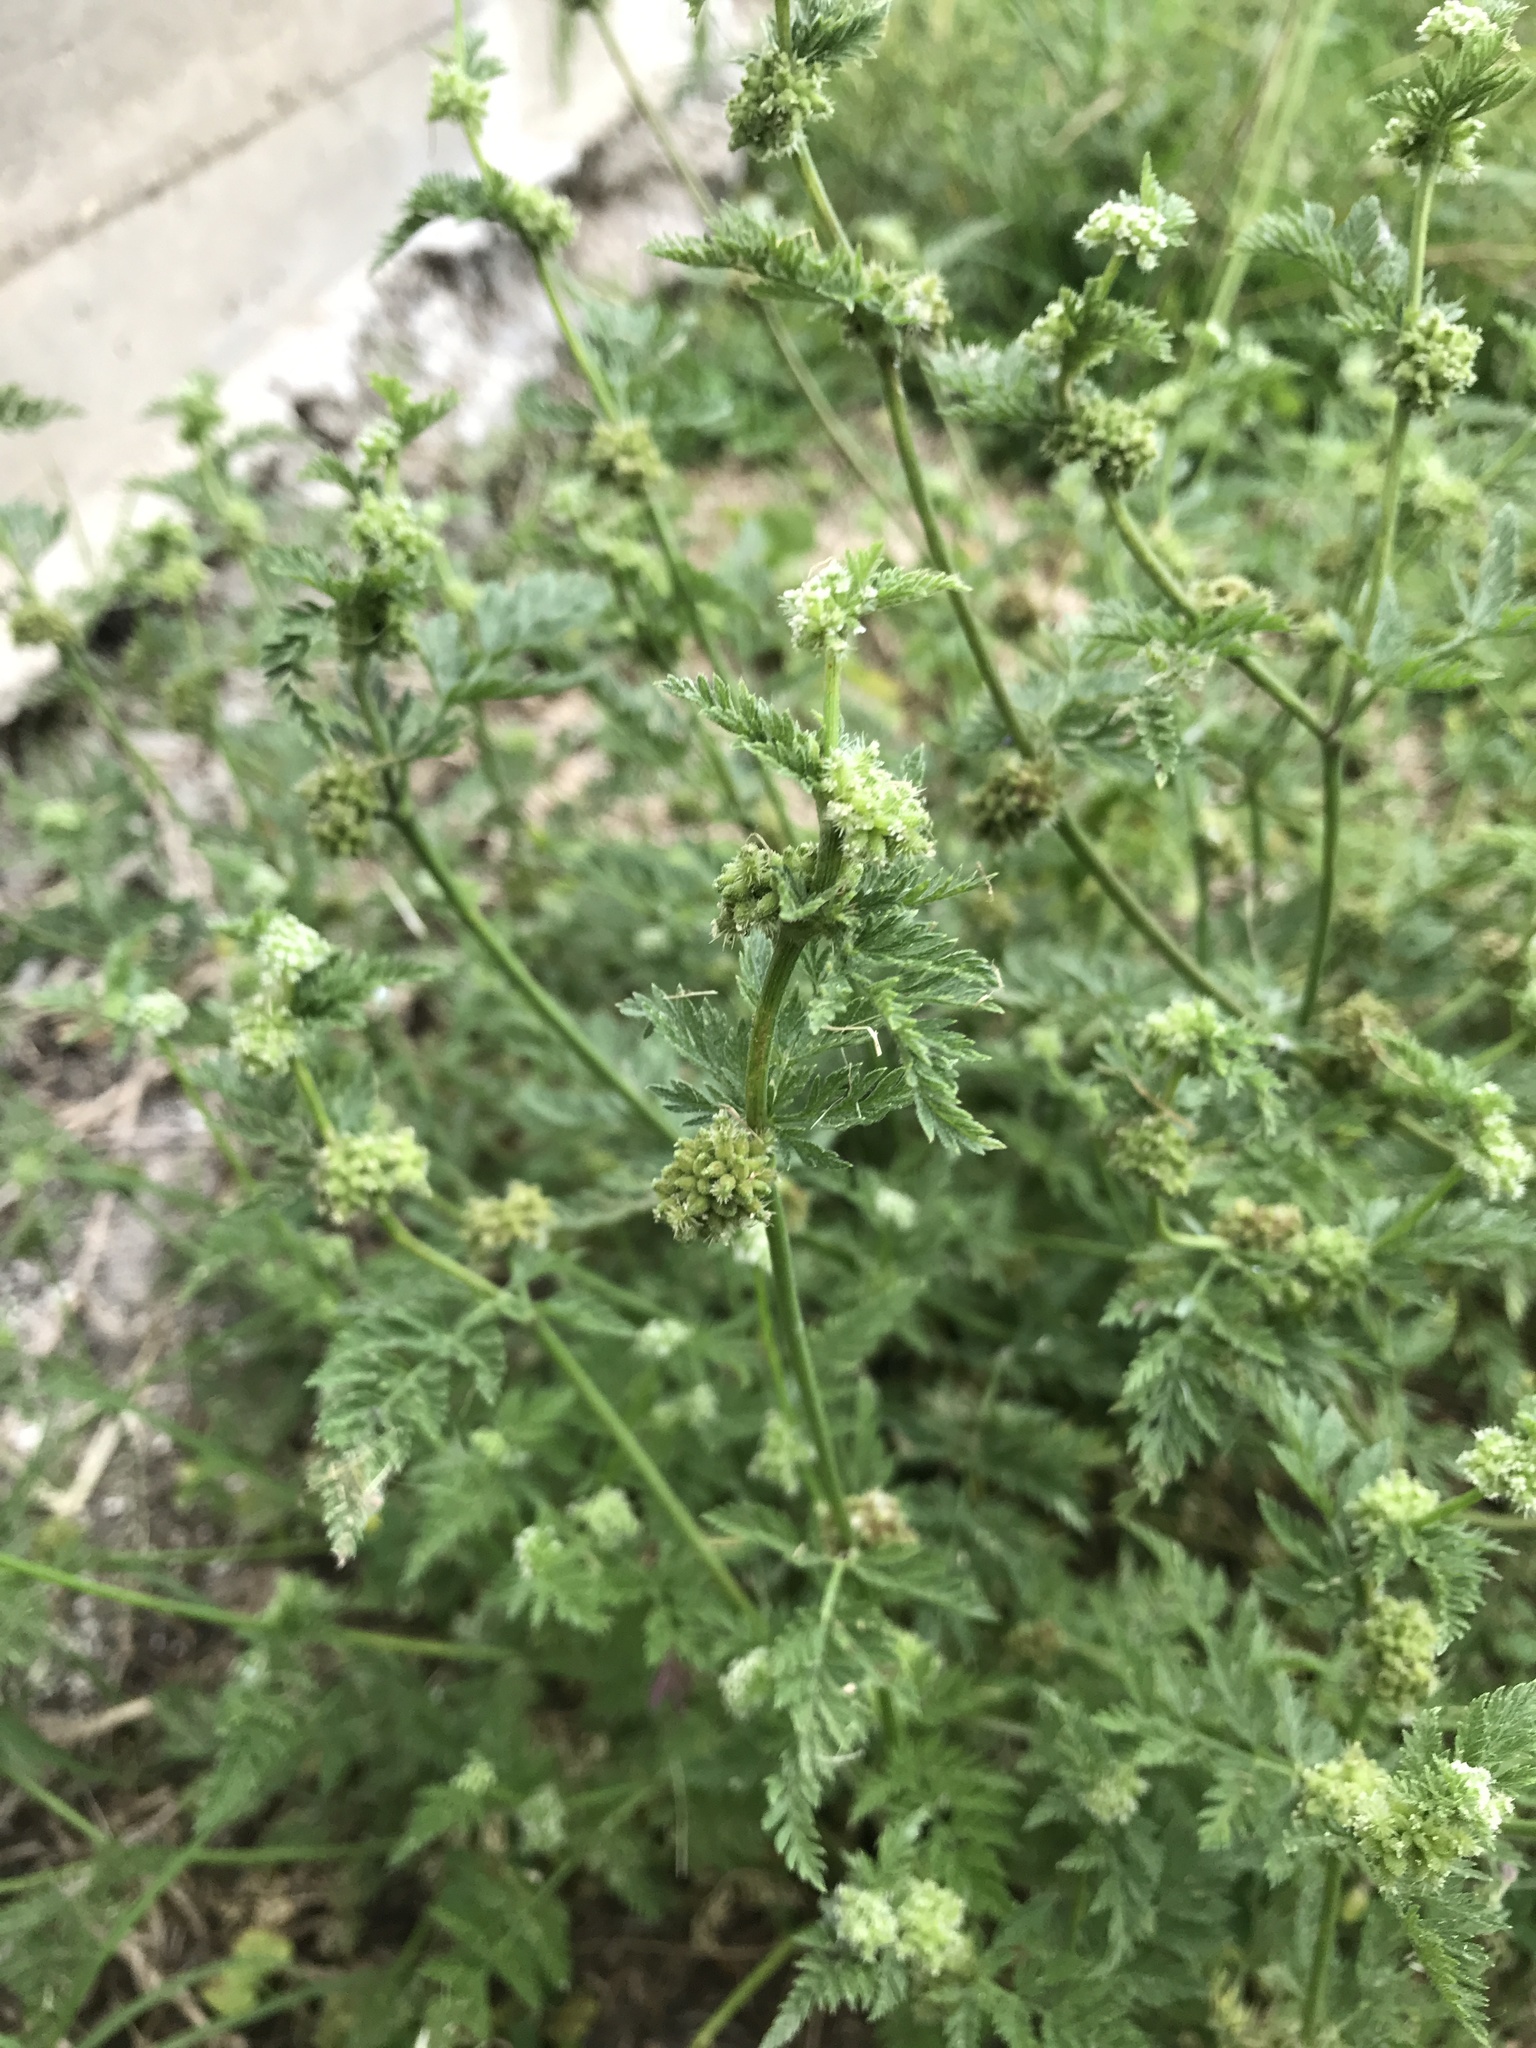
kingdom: Plantae
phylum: Tracheophyta
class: Magnoliopsida
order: Apiales
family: Apiaceae
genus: Torilis
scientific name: Torilis nodosa
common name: Knotted hedge-parsley
